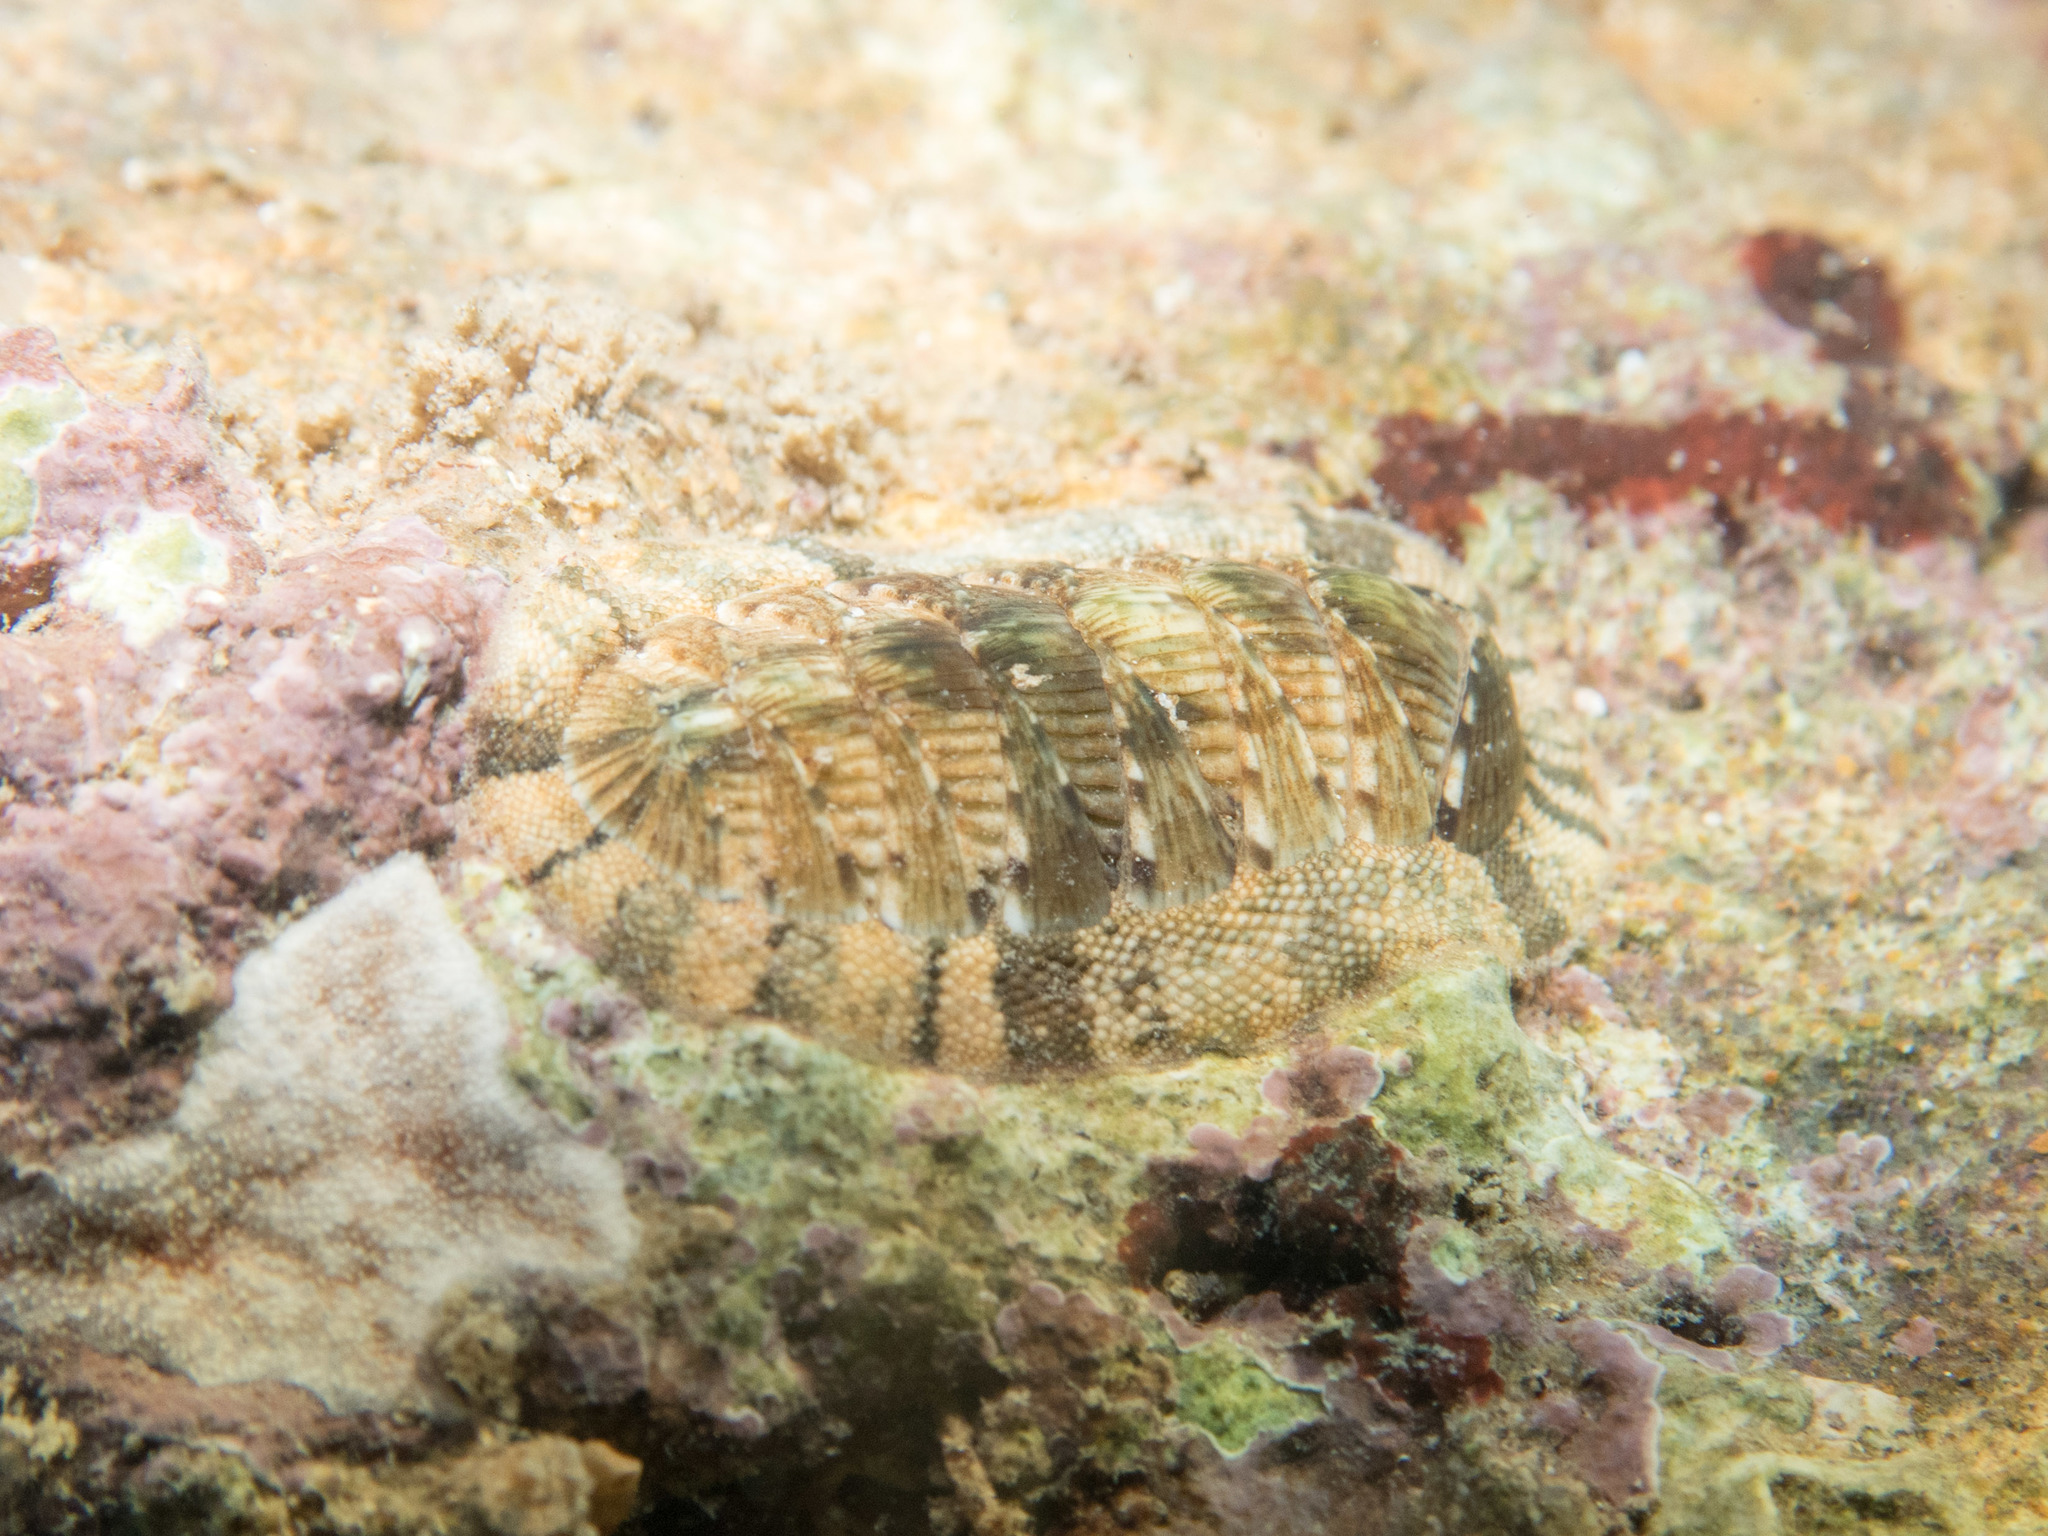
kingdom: Animalia
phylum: Mollusca
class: Polyplacophora
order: Chitonida
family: Chitonidae
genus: Rhyssoplax
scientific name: Rhyssoplax olivacea
